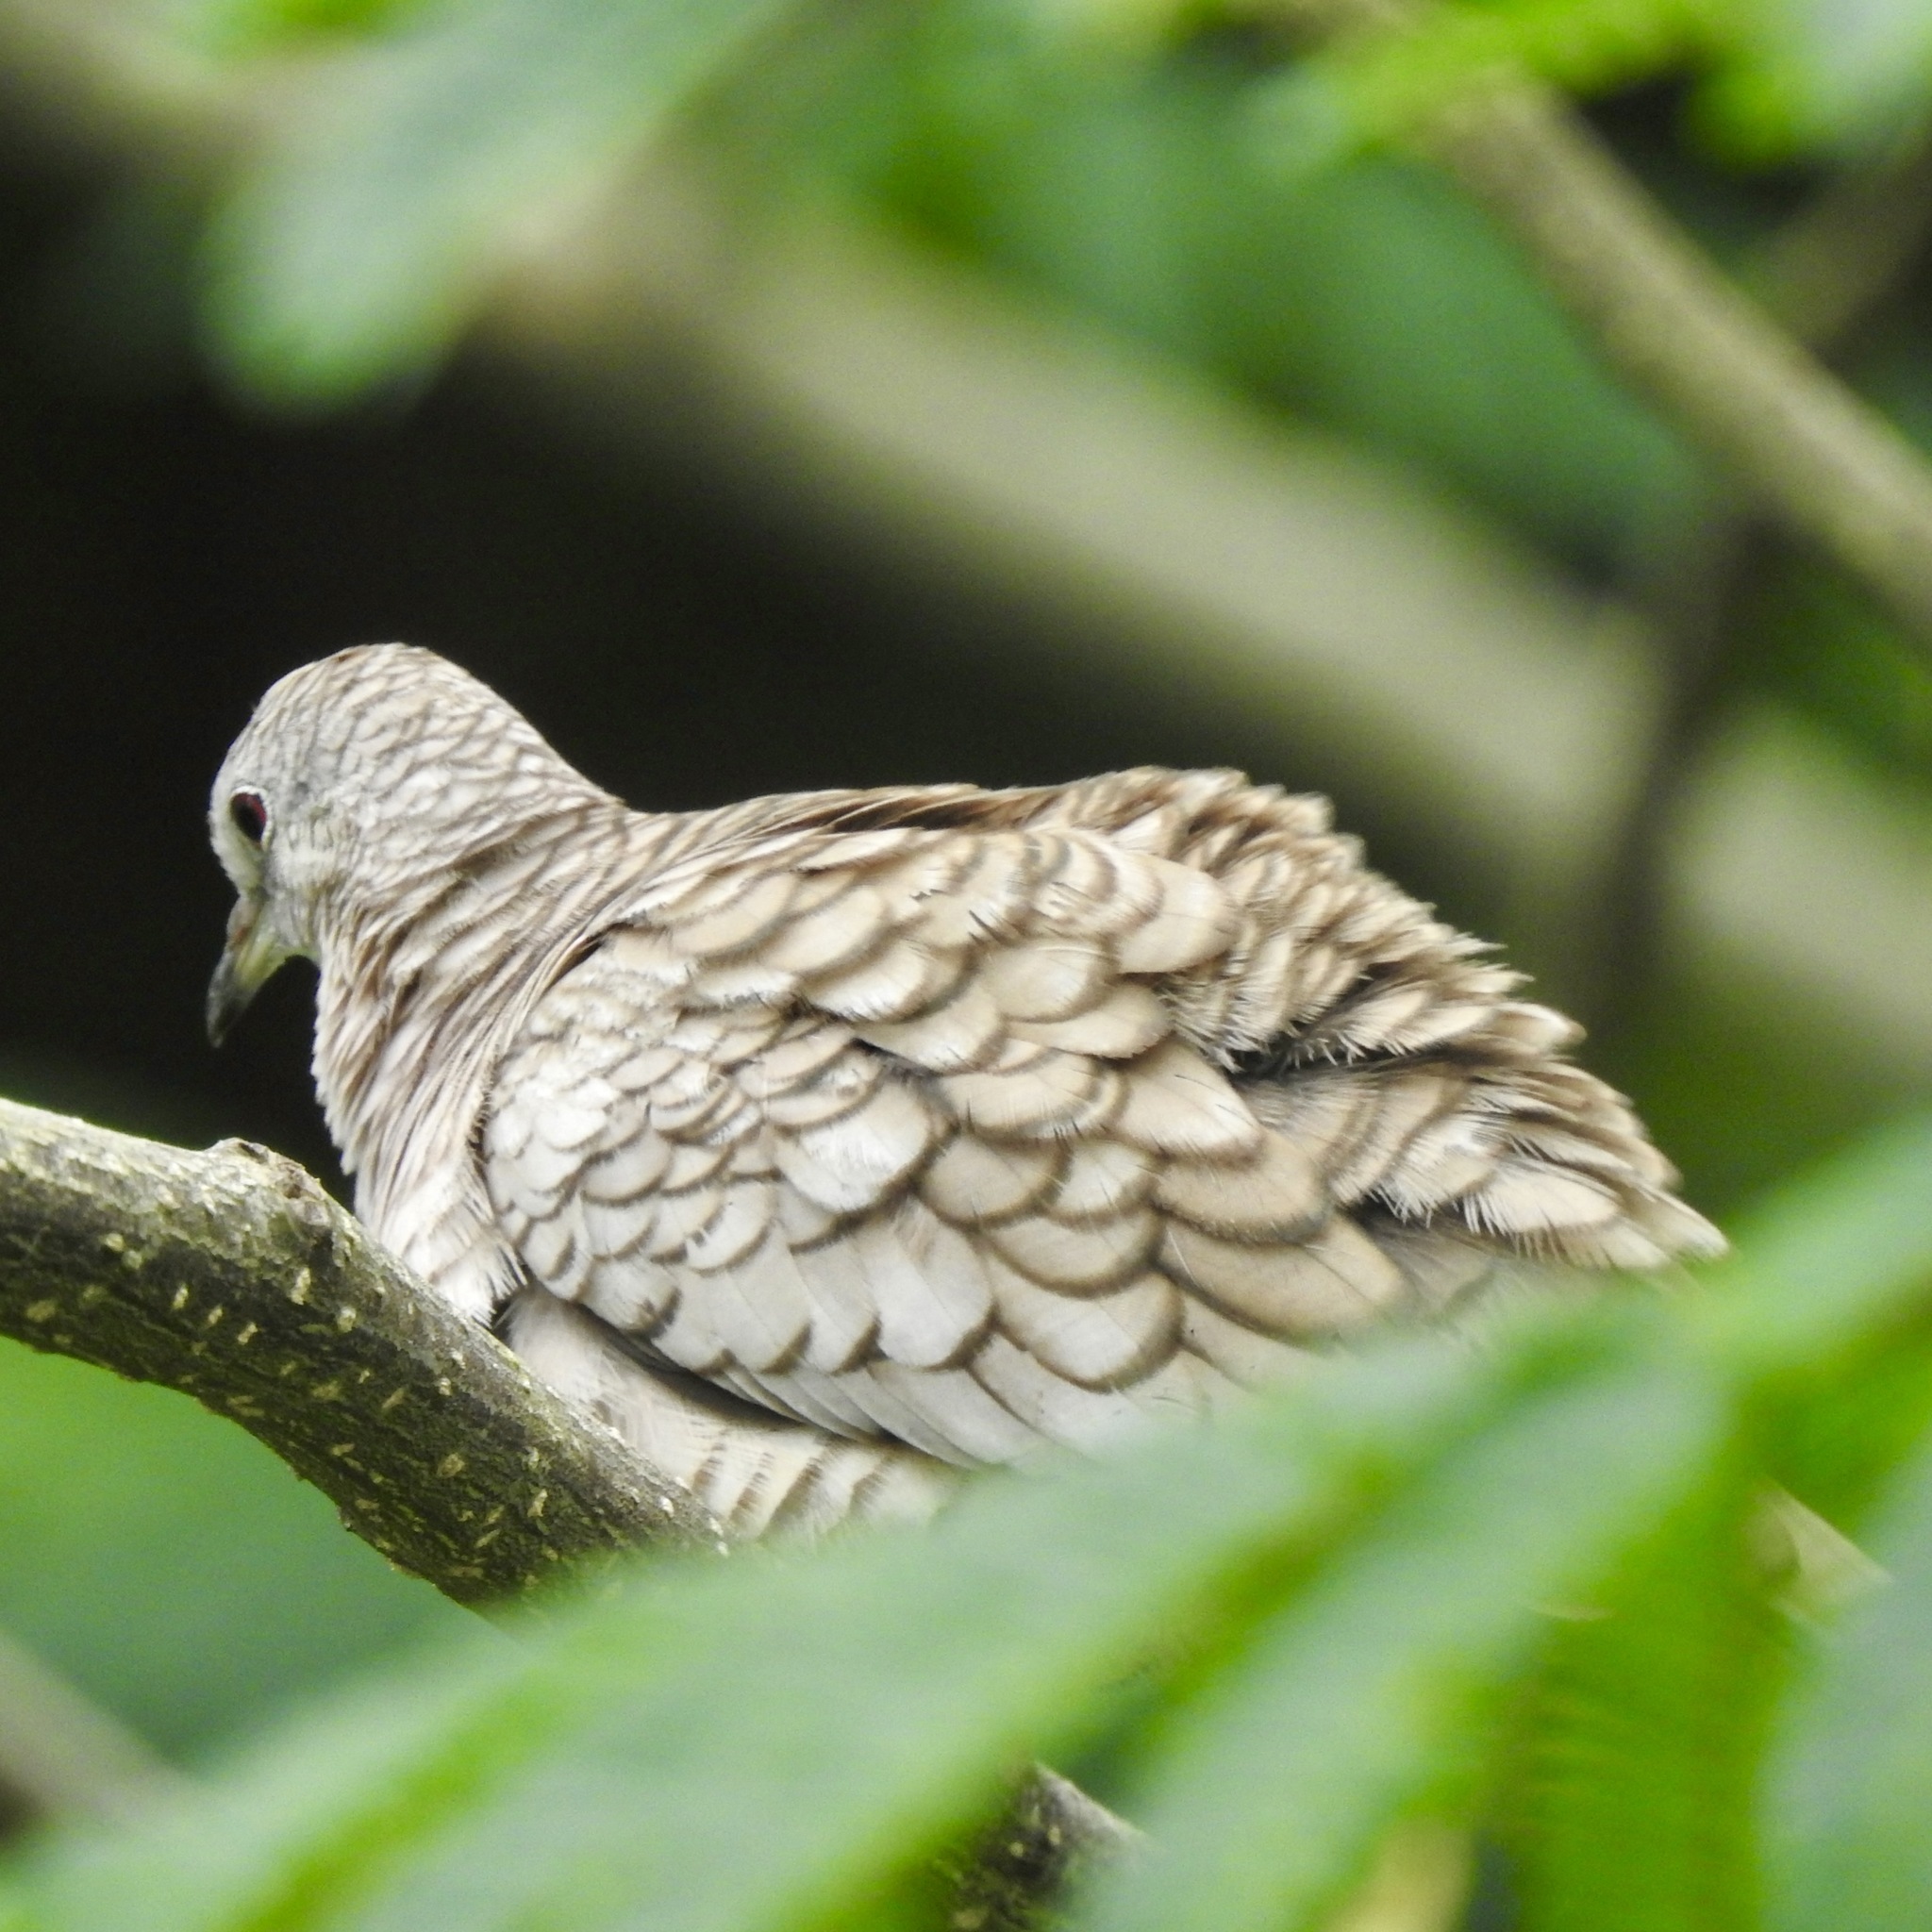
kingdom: Animalia
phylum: Chordata
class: Aves
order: Columbiformes
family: Columbidae
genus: Columbina
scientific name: Columbina inca
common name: Inca dove
